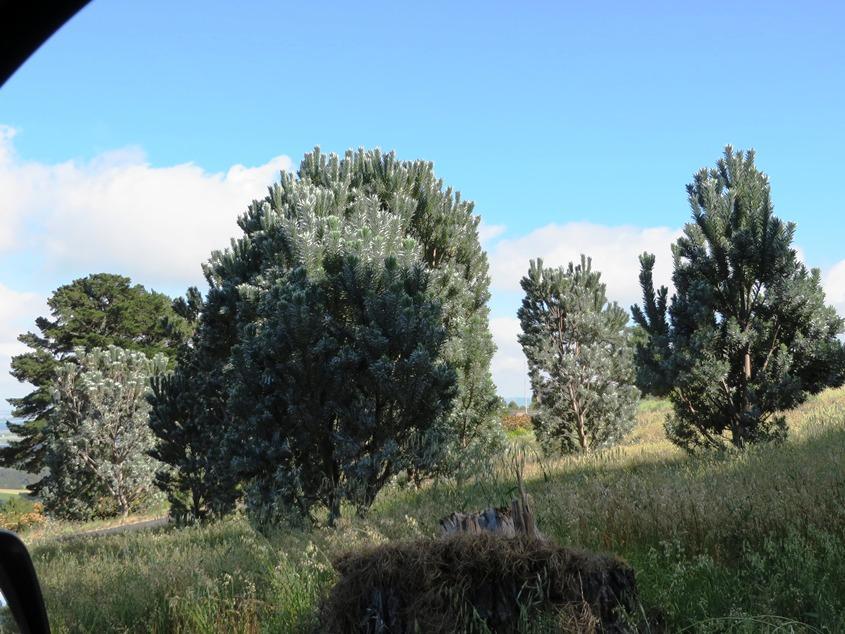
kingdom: Plantae
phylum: Tracheophyta
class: Magnoliopsida
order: Proteales
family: Proteaceae
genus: Leucadendron
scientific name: Leucadendron argenteum
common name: Cape silver tree
